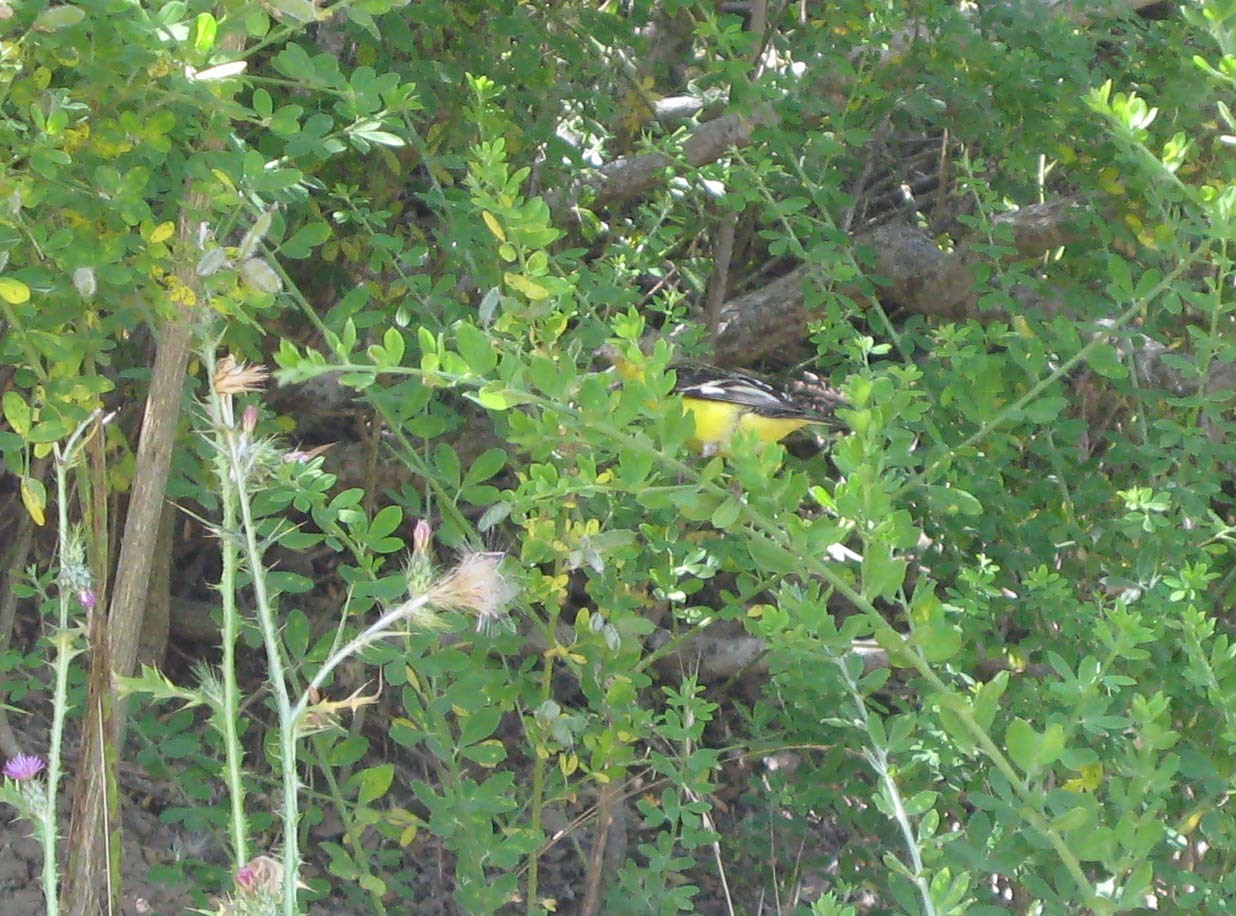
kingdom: Animalia
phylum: Chordata
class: Aves
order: Passeriformes
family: Fringillidae
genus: Spinus
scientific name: Spinus psaltria
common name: Lesser goldfinch
